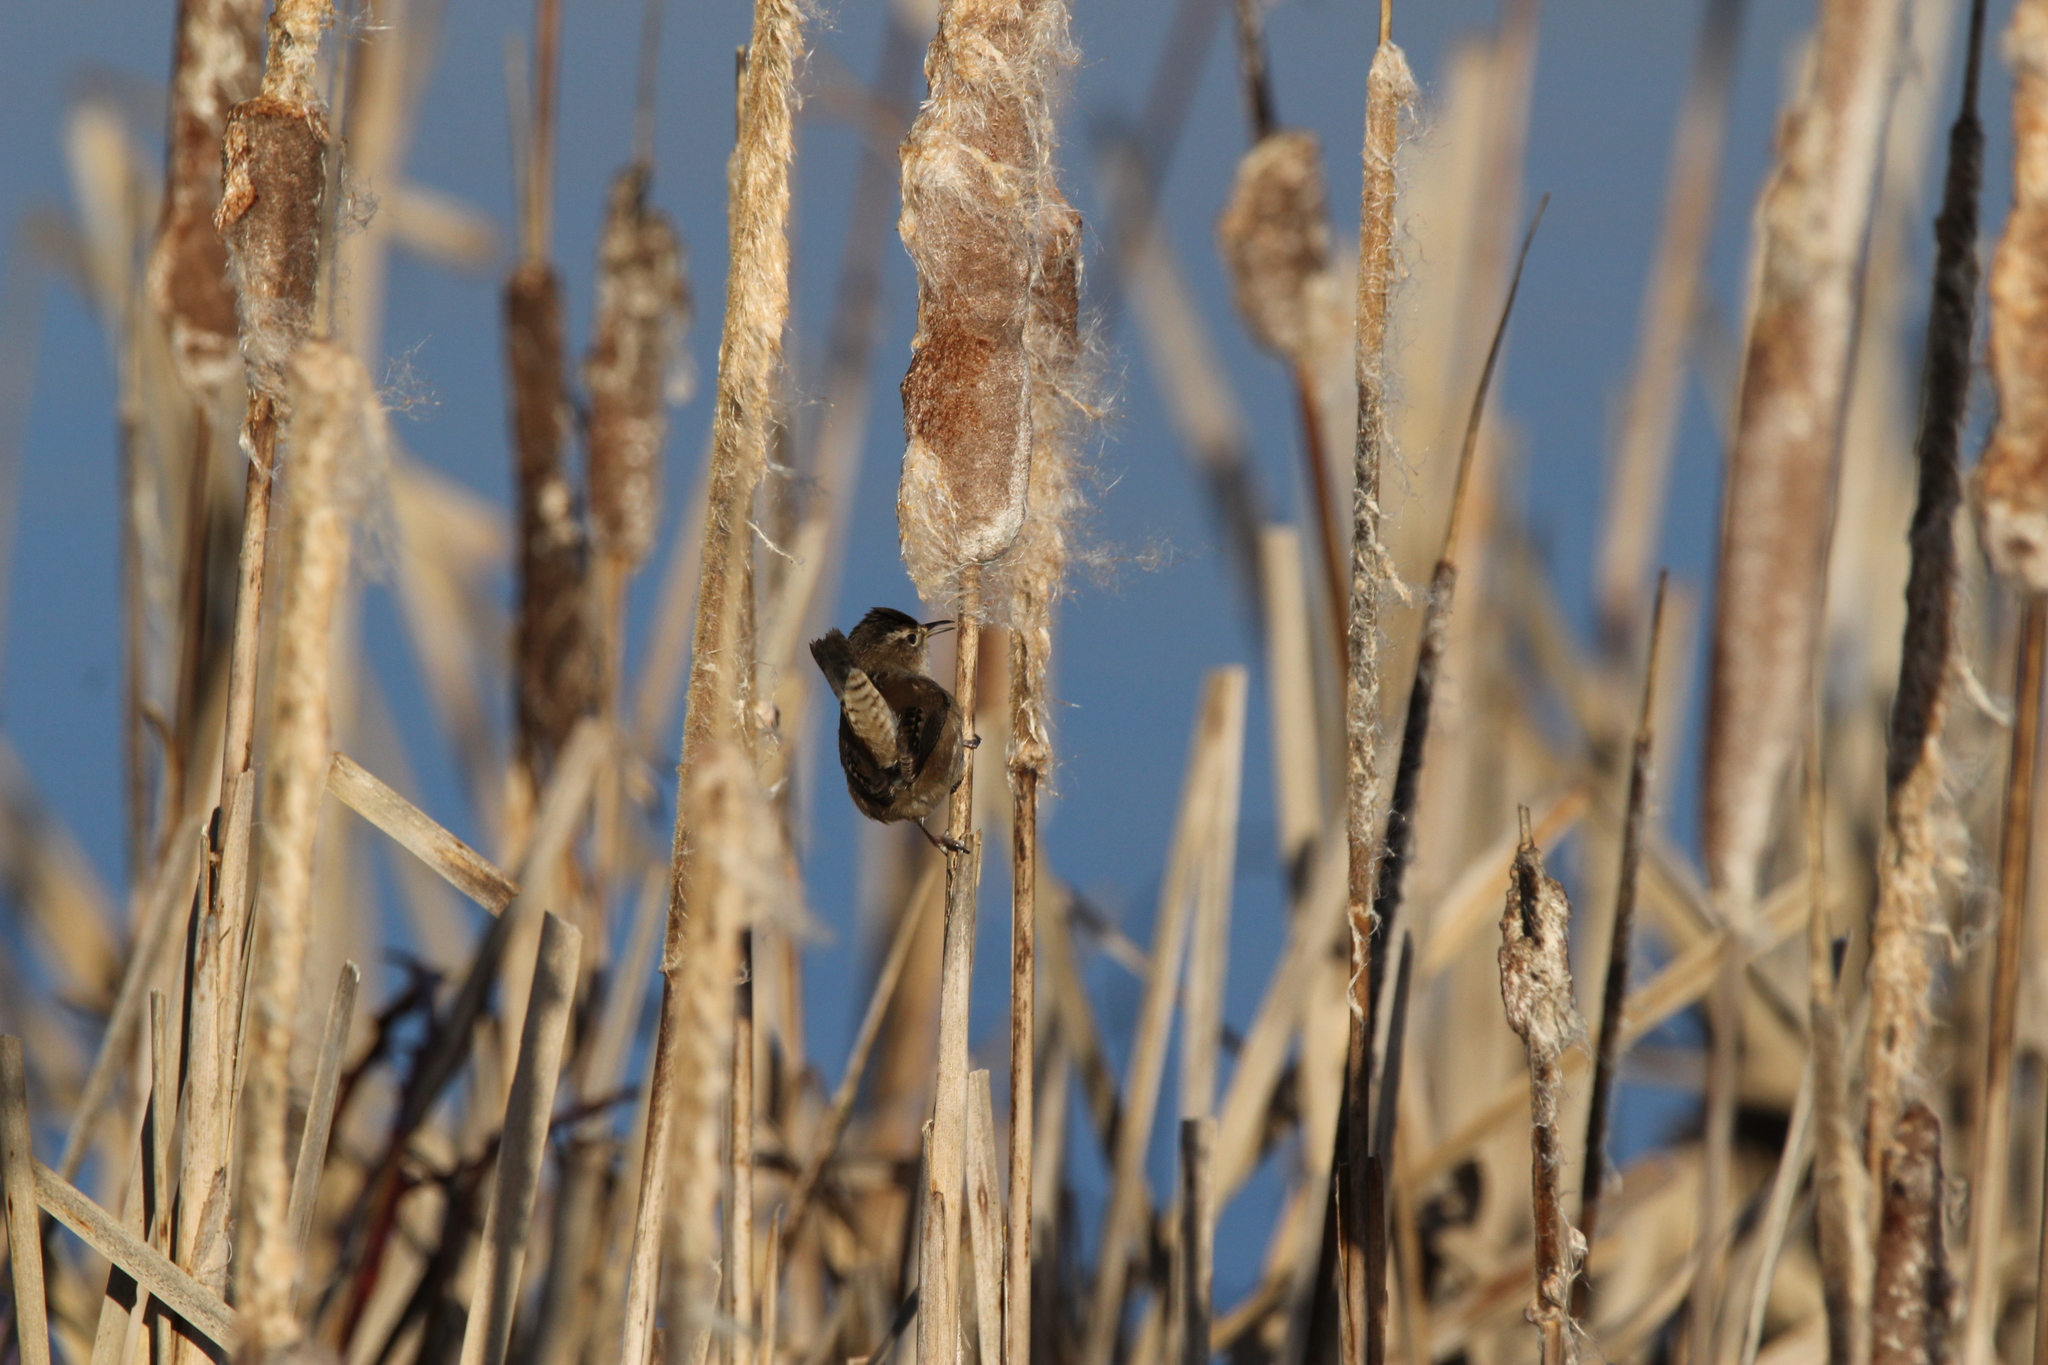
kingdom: Animalia
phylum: Chordata
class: Aves
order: Passeriformes
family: Troglodytidae
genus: Cistothorus
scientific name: Cistothorus palustris
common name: Marsh wren
